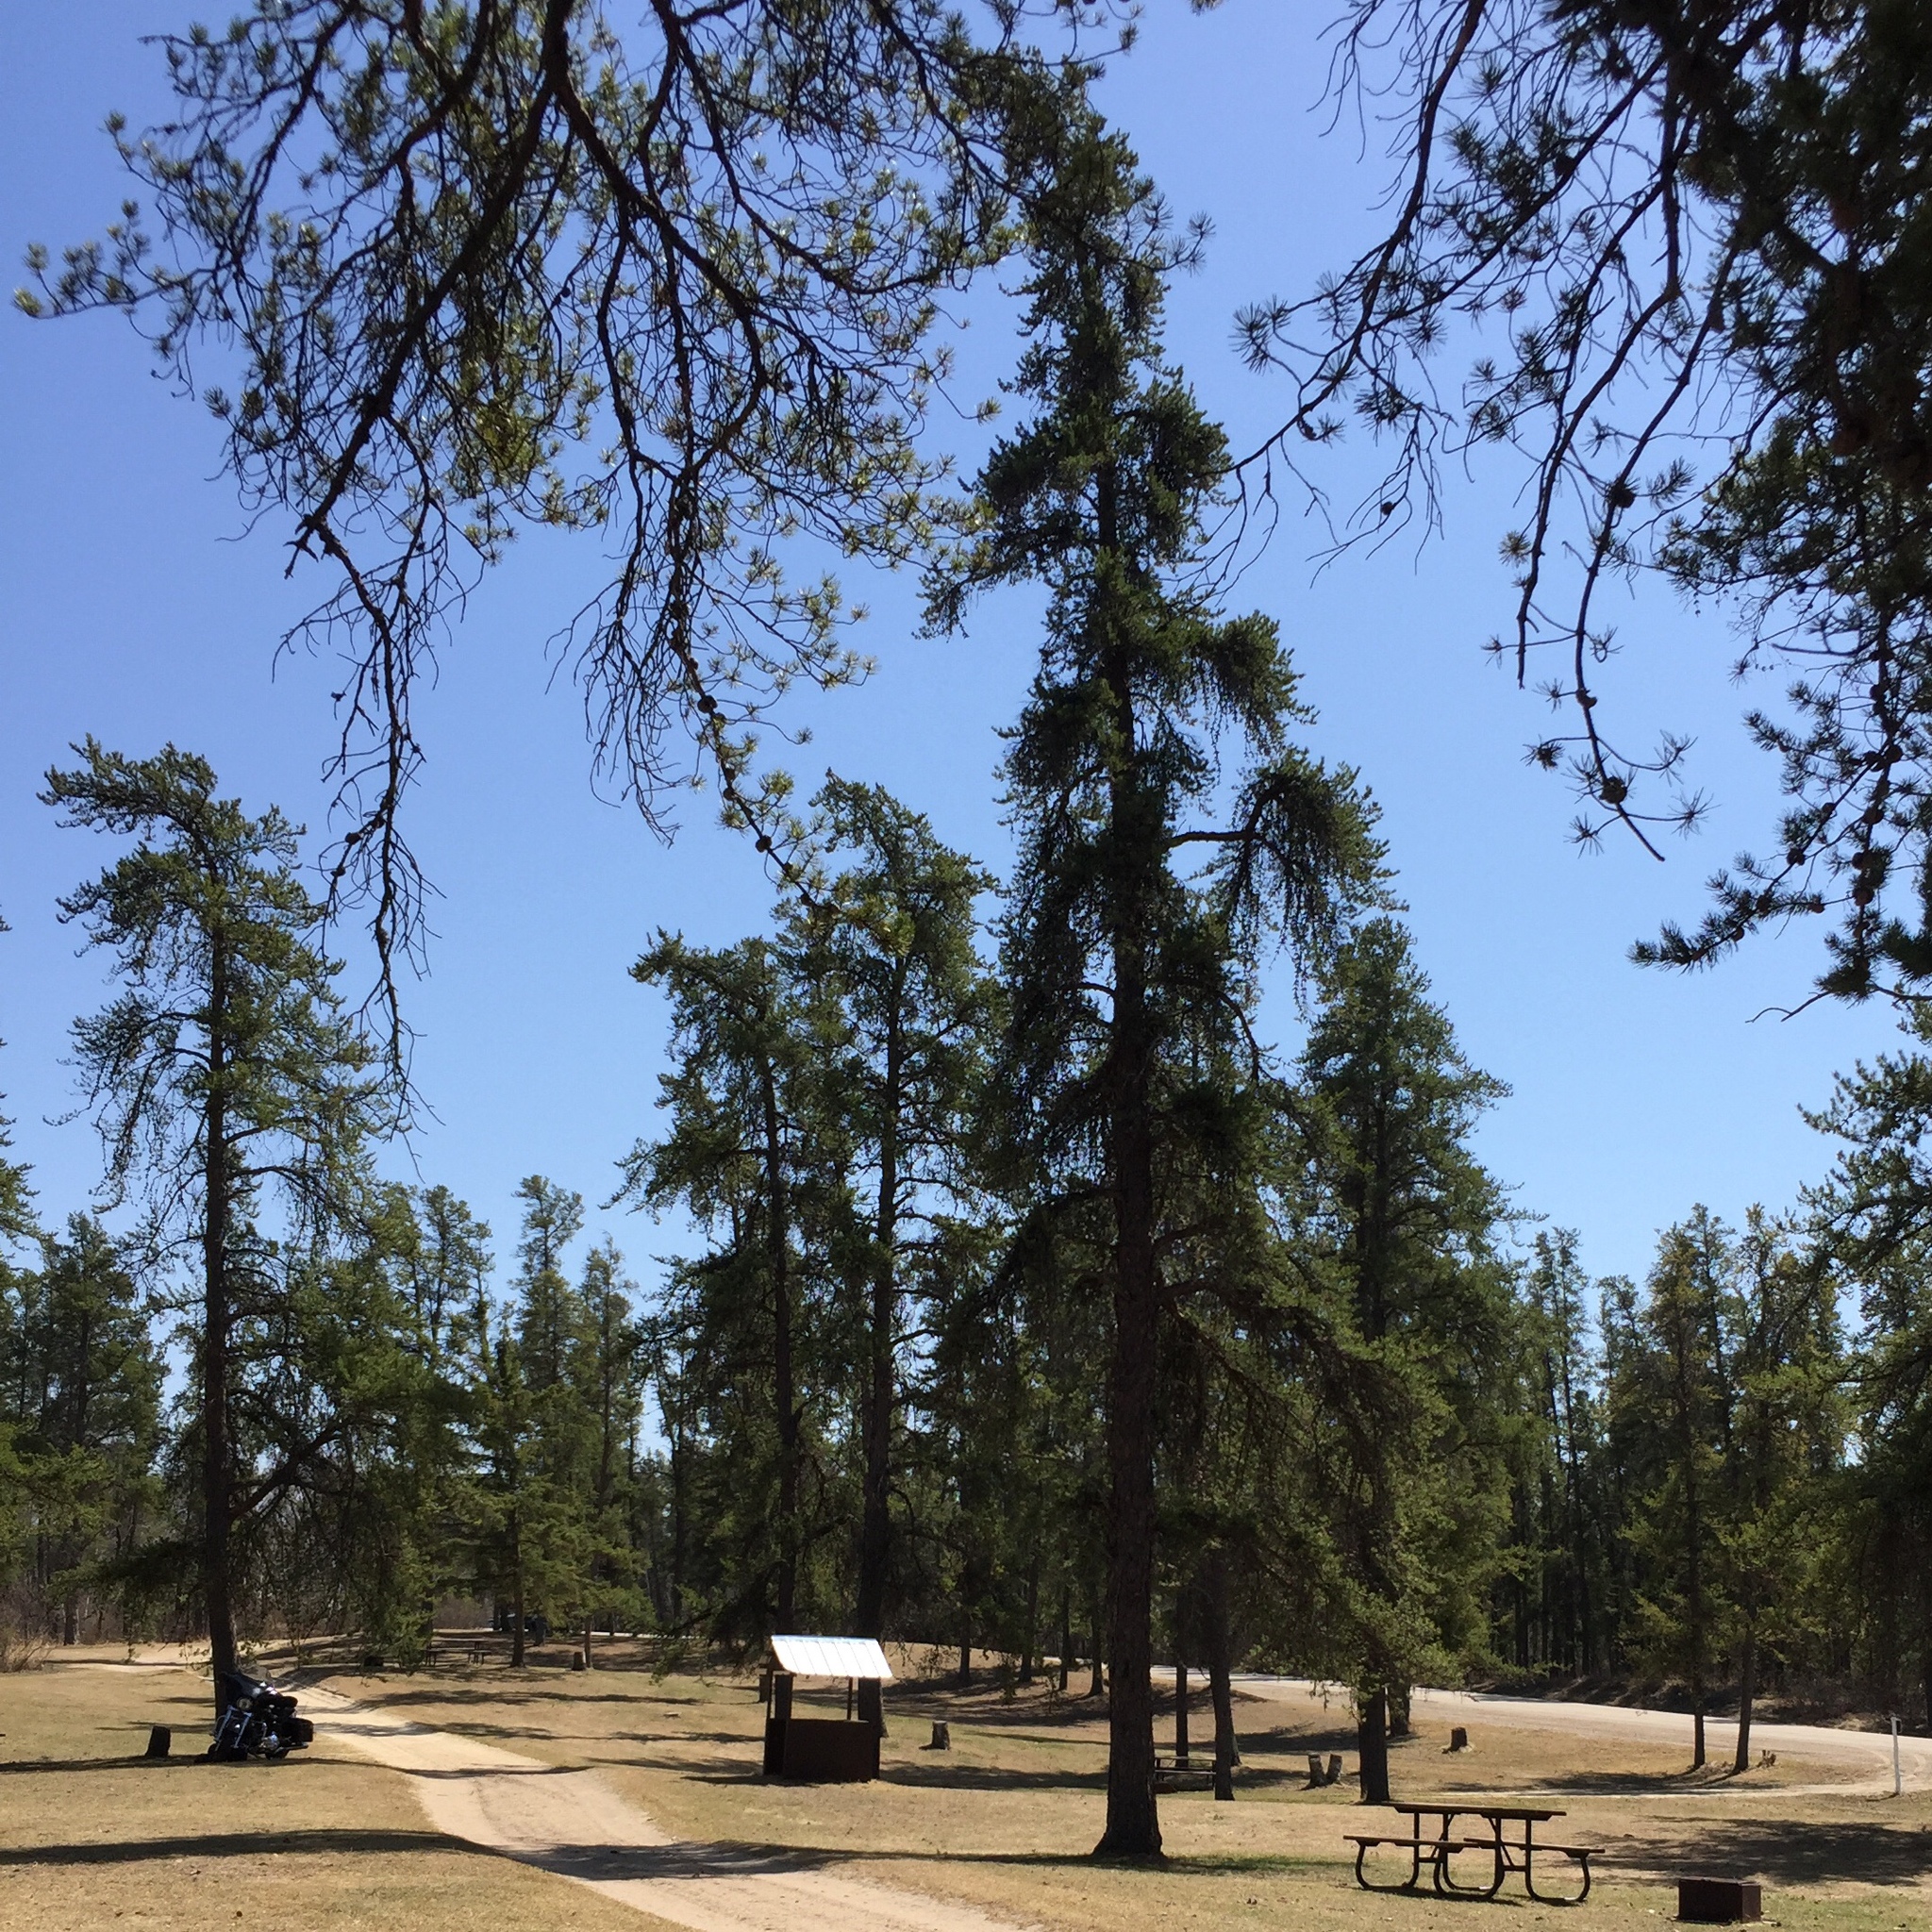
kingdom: Plantae
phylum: Tracheophyta
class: Pinopsida
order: Pinales
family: Pinaceae
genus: Pinus
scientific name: Pinus banksiana
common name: Jack pine
